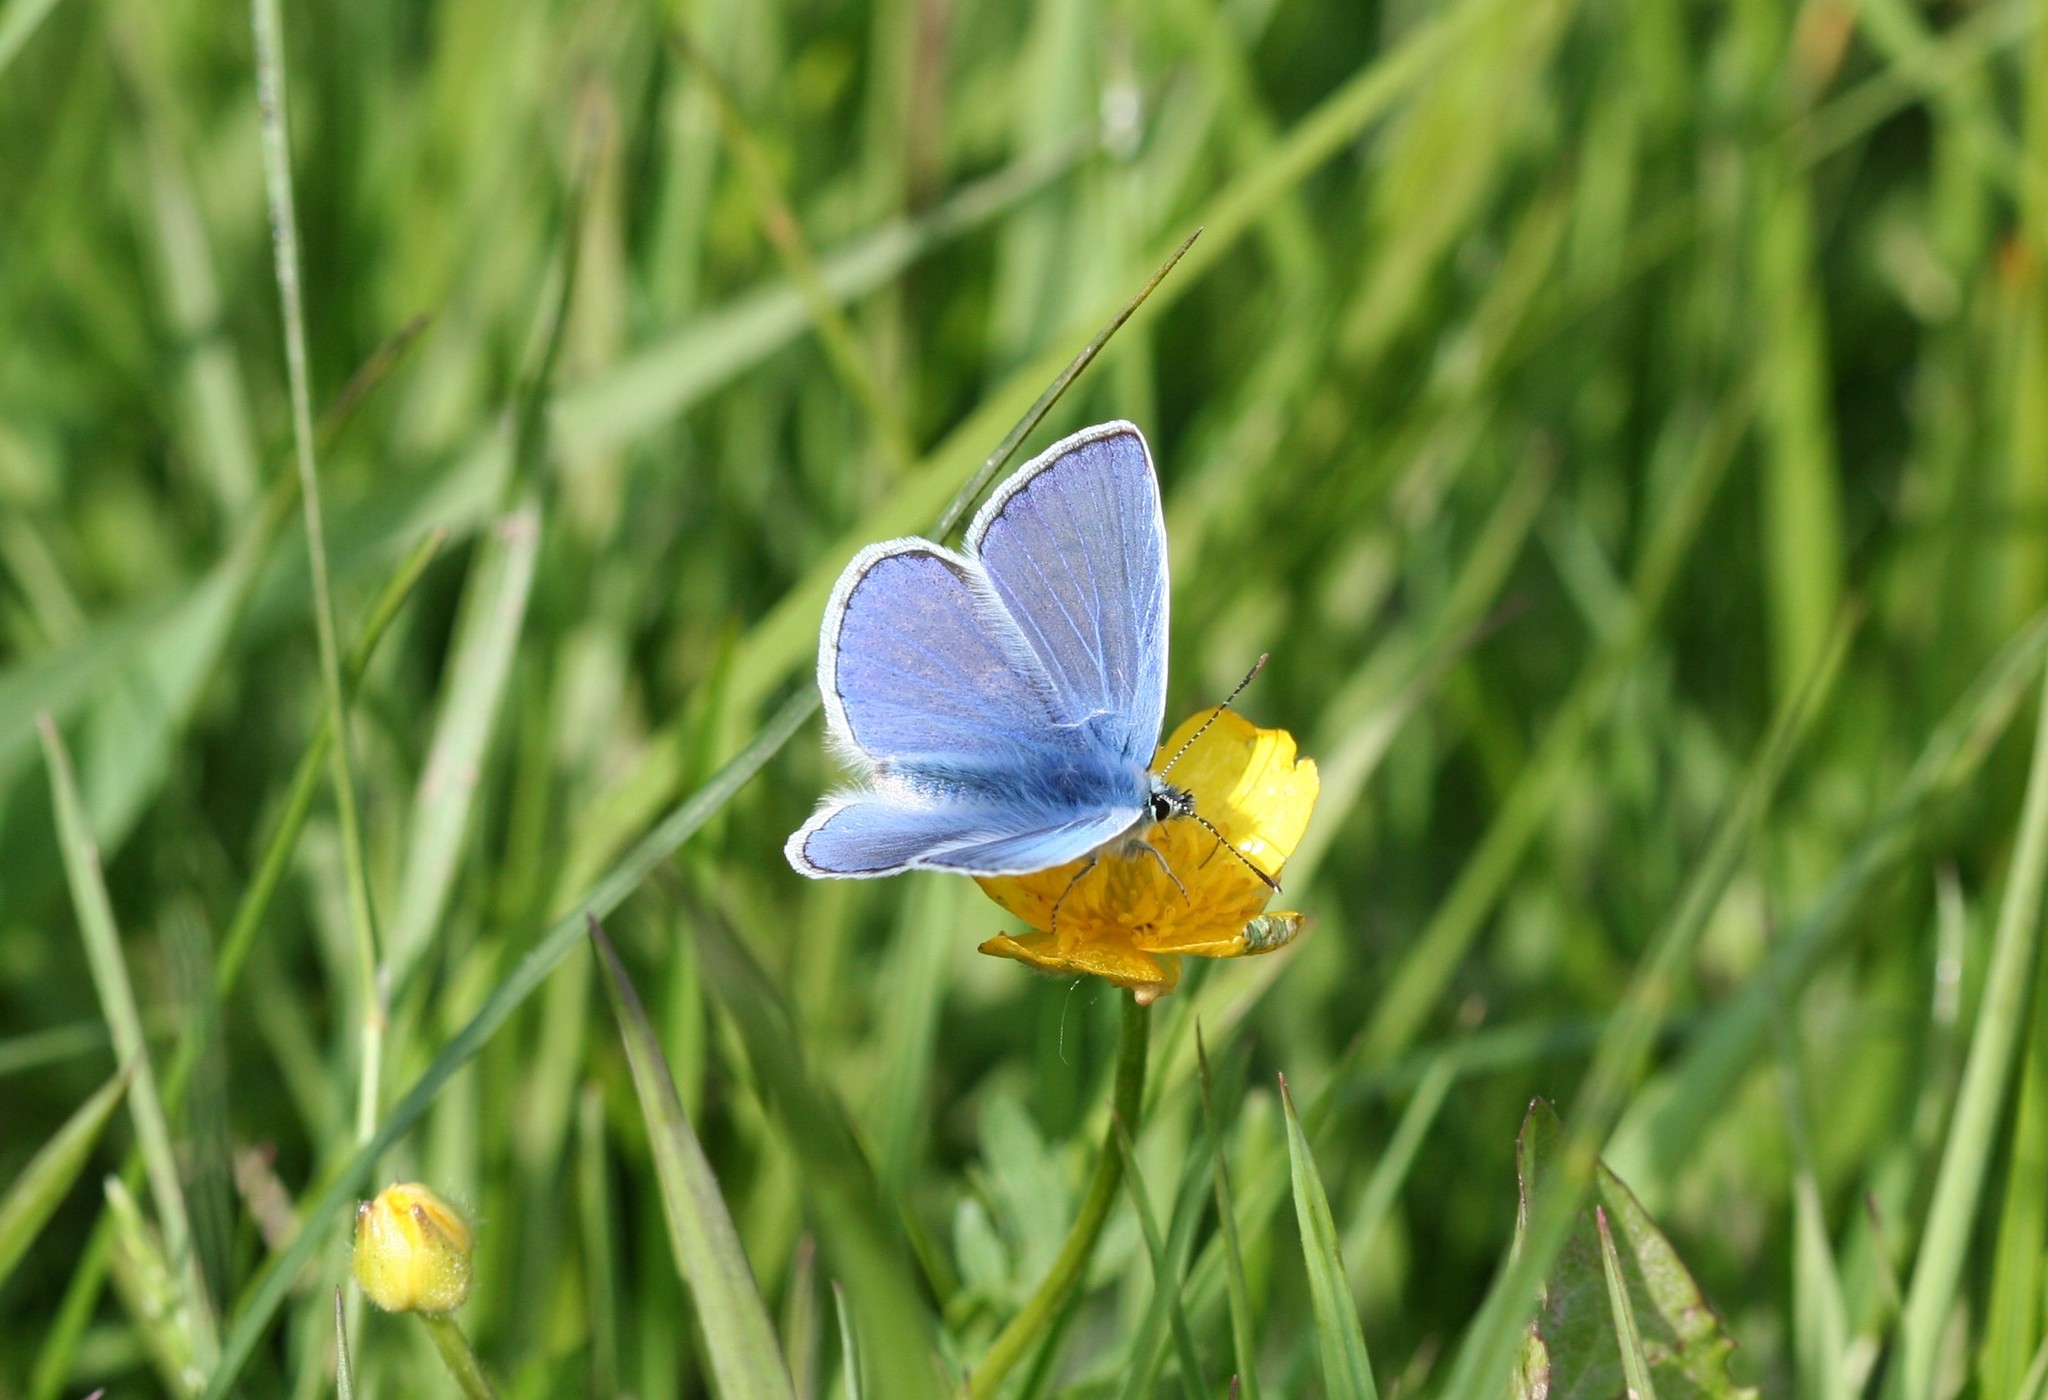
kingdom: Animalia
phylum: Arthropoda
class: Insecta
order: Lepidoptera
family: Lycaenidae
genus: Polyommatus
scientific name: Polyommatus icarus
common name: Common blue
